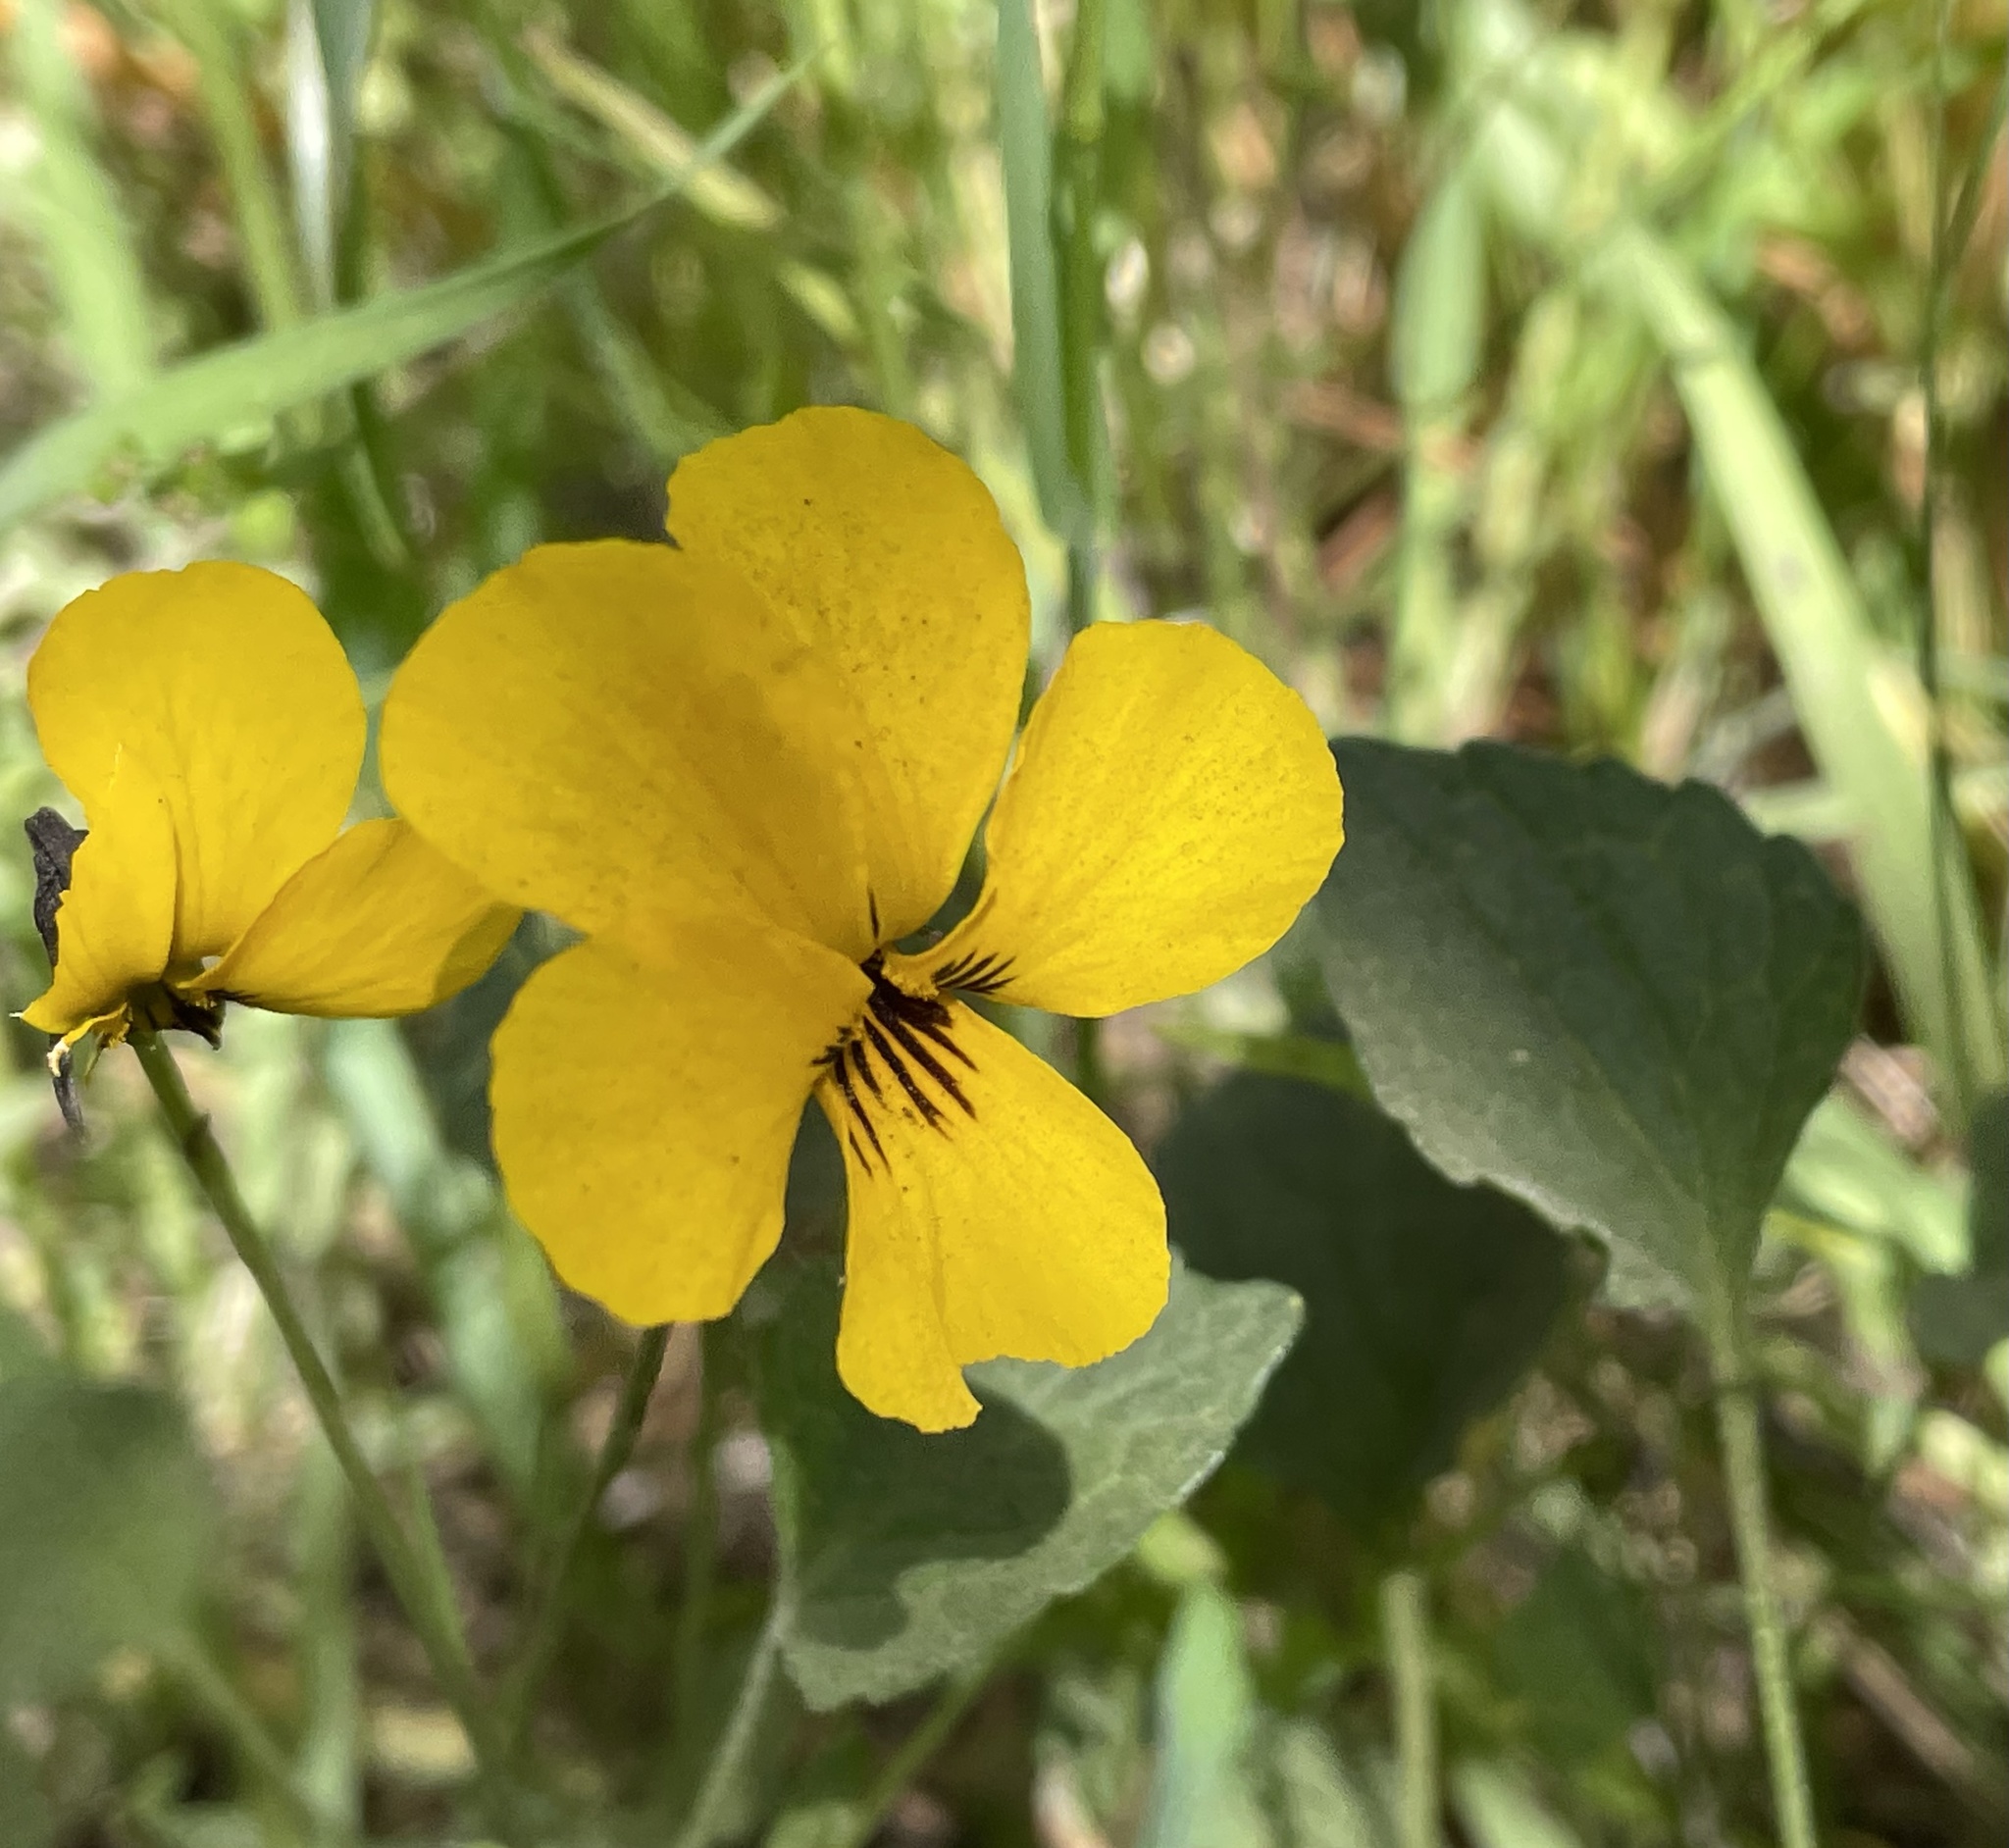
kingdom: Plantae
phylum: Tracheophyta
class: Magnoliopsida
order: Malpighiales
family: Violaceae
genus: Viola
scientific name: Viola pedunculata
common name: California golden violet
